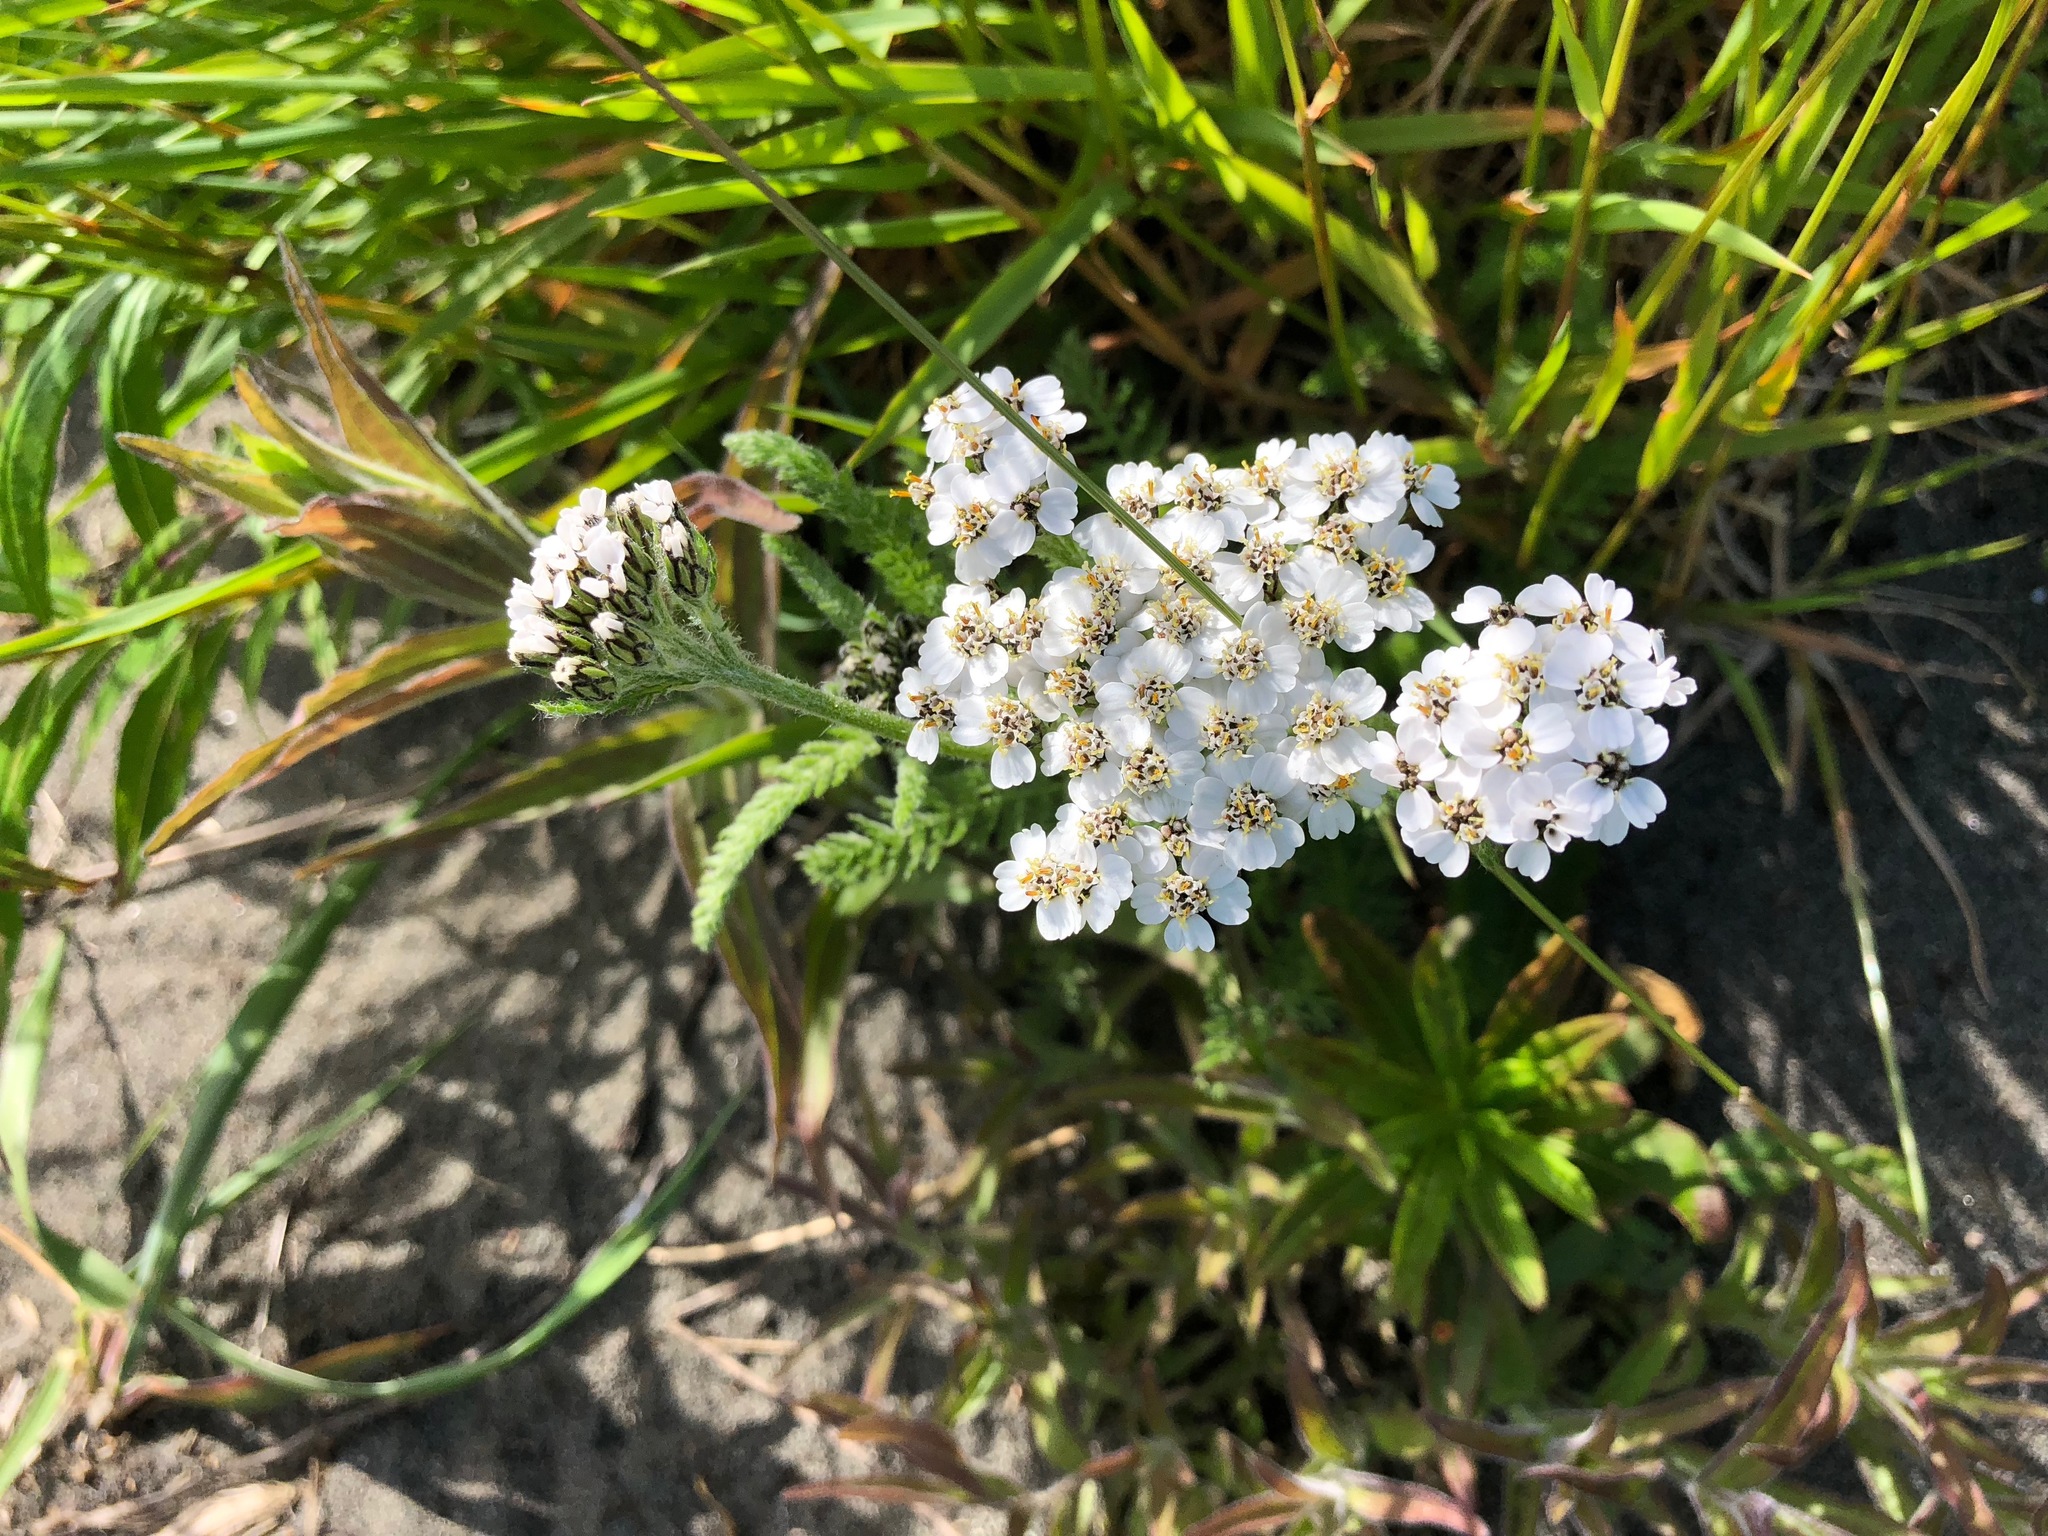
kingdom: Plantae
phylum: Tracheophyta
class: Magnoliopsida
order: Asterales
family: Asteraceae
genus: Achillea
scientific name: Achillea millefolium
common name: Yarrow
